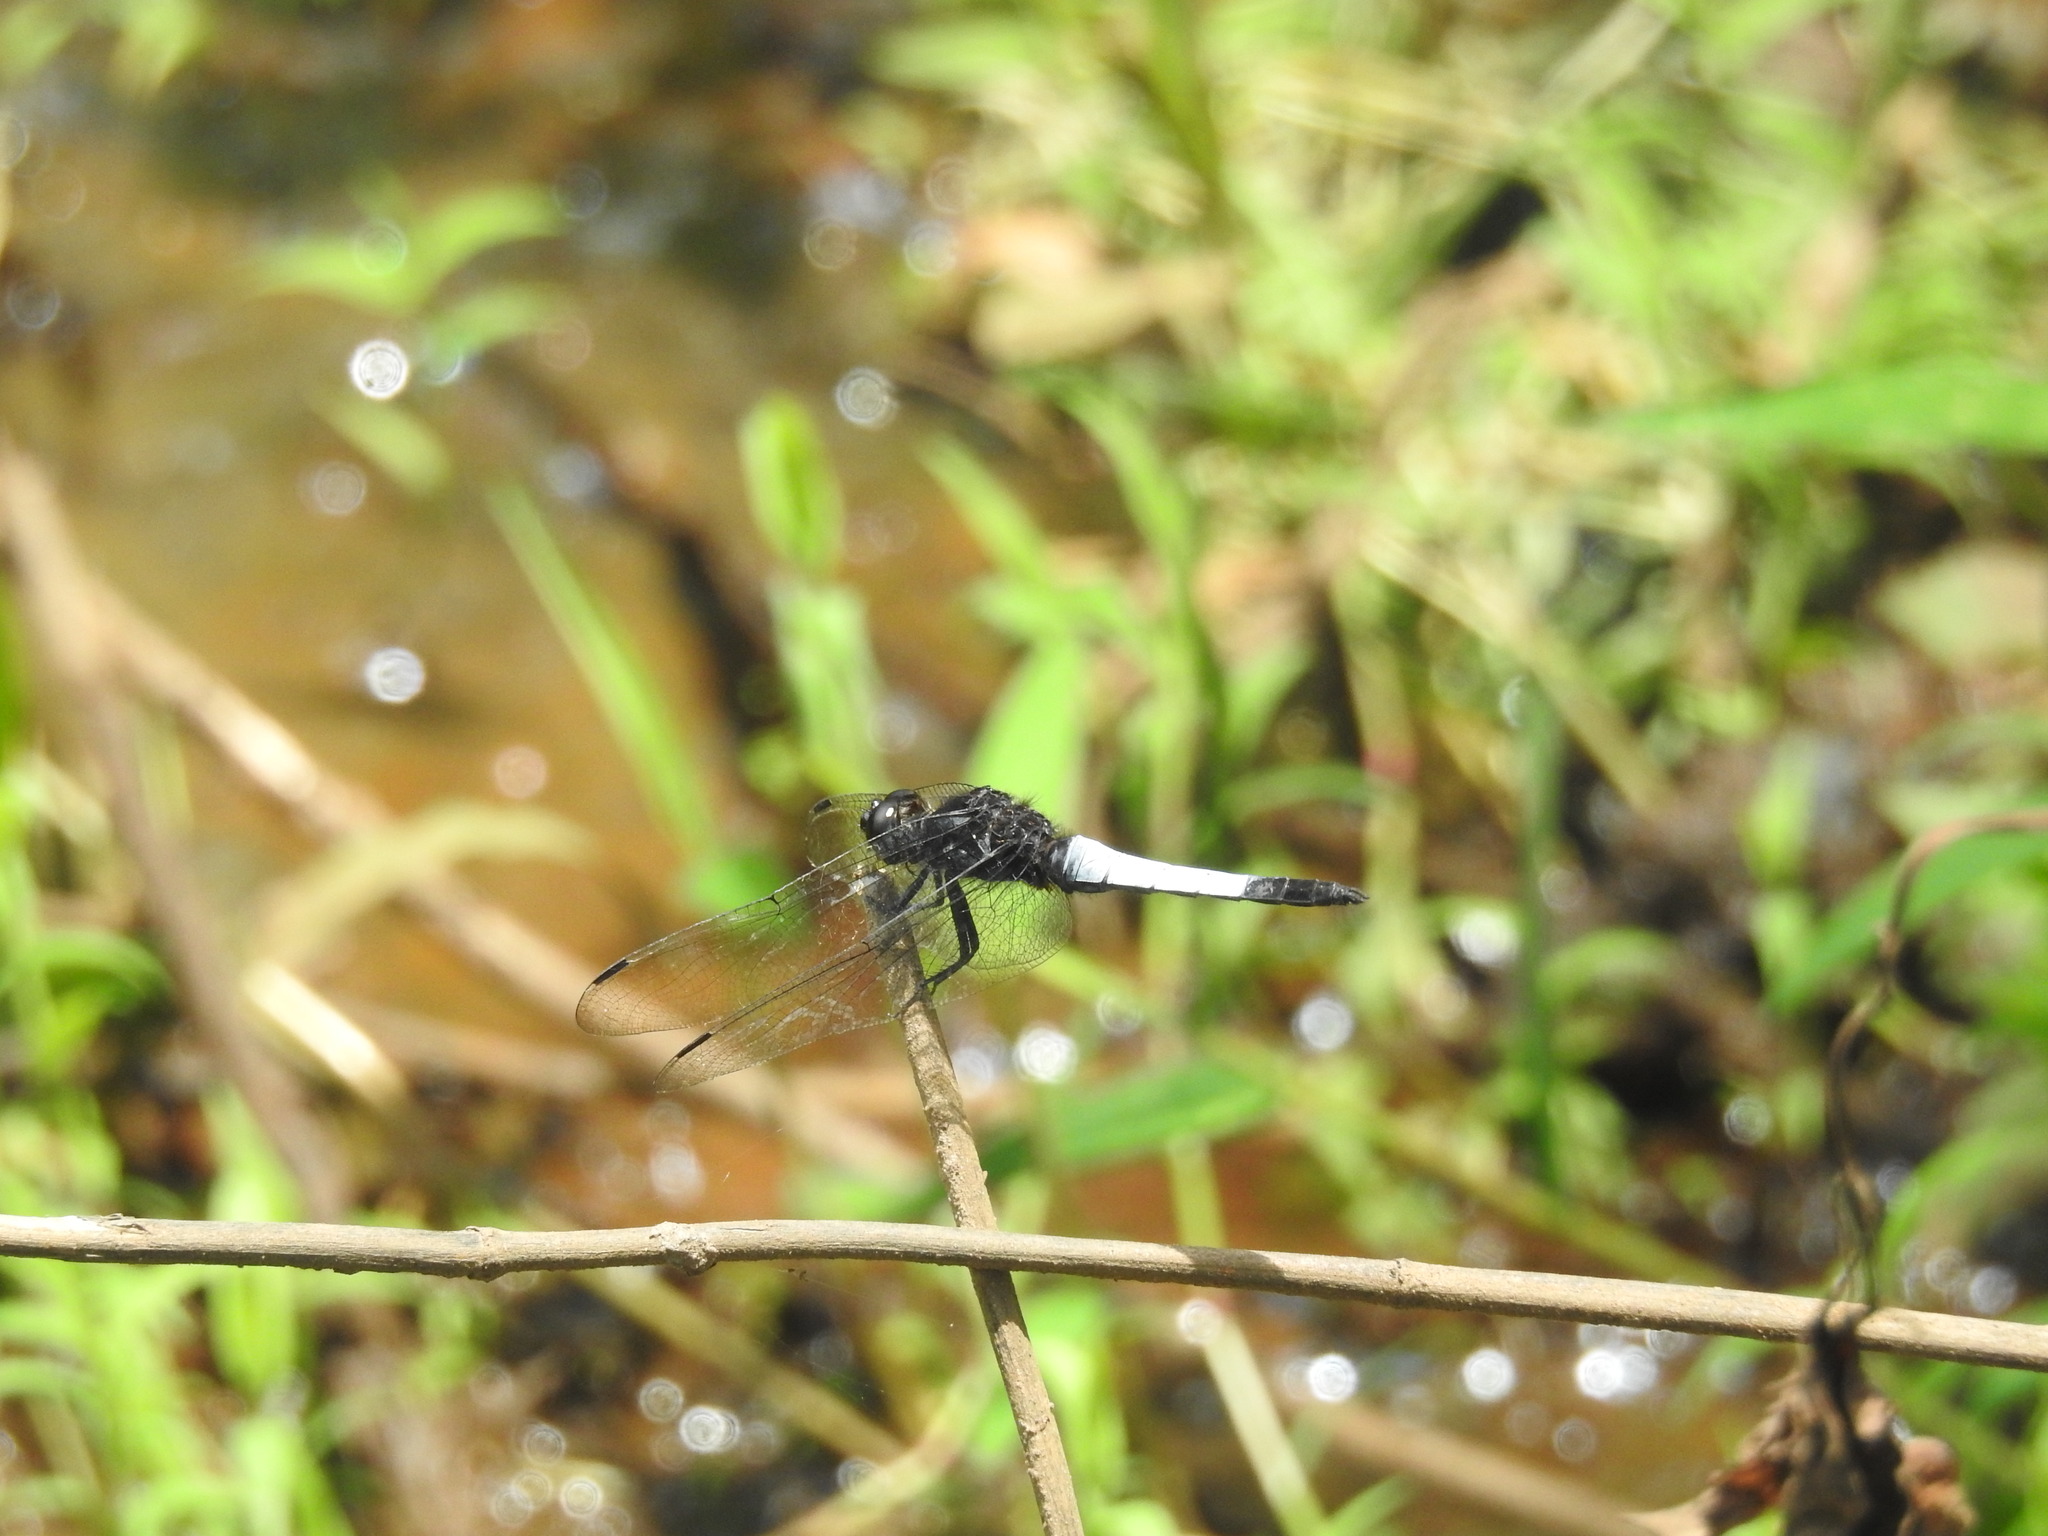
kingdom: Animalia
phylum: Arthropoda
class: Insecta
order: Odonata
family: Libellulidae
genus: Orthetrum
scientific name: Orthetrum triangulare
